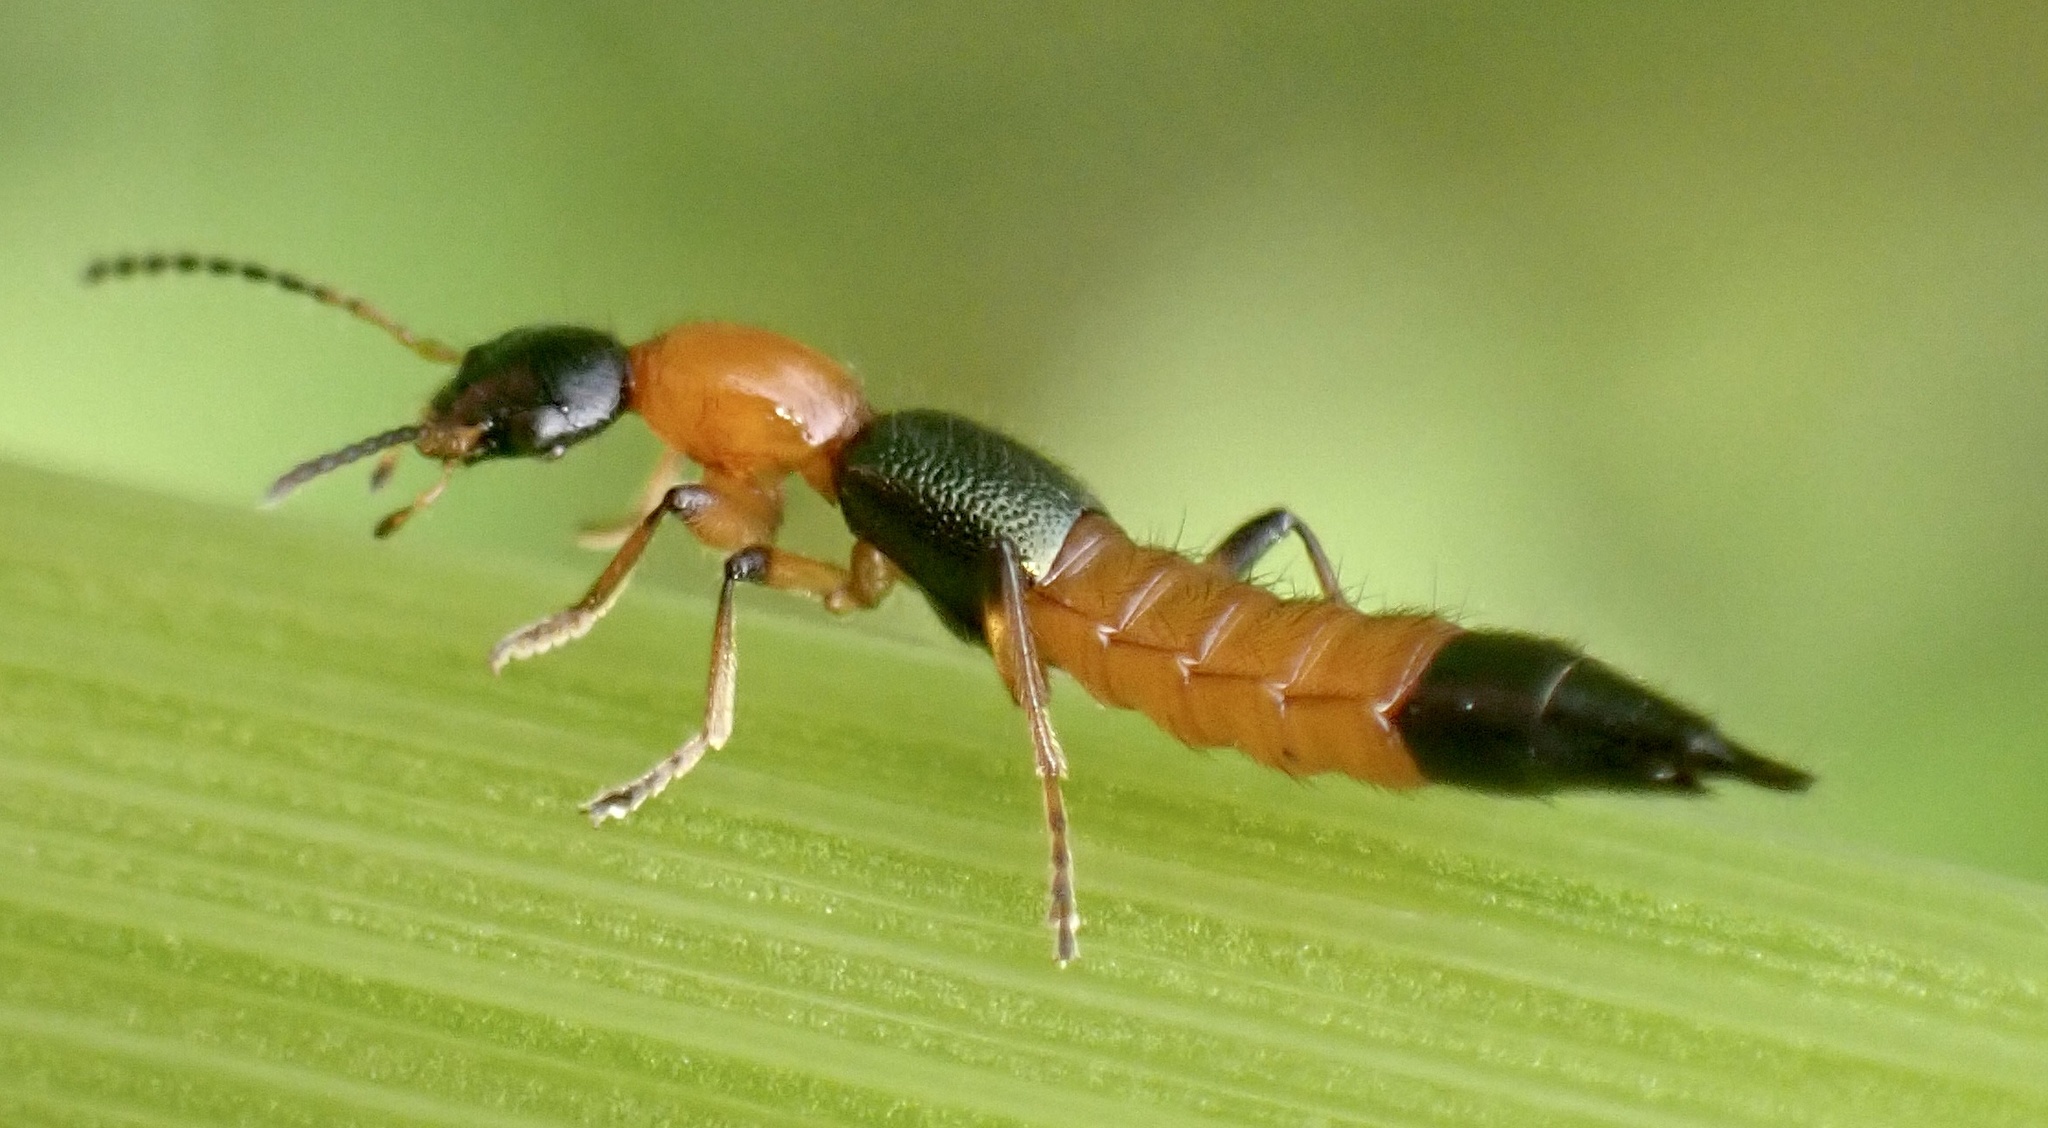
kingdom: Animalia
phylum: Arthropoda
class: Insecta
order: Coleoptera
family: Staphylinidae
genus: Paederus
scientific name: Paederus riparius
